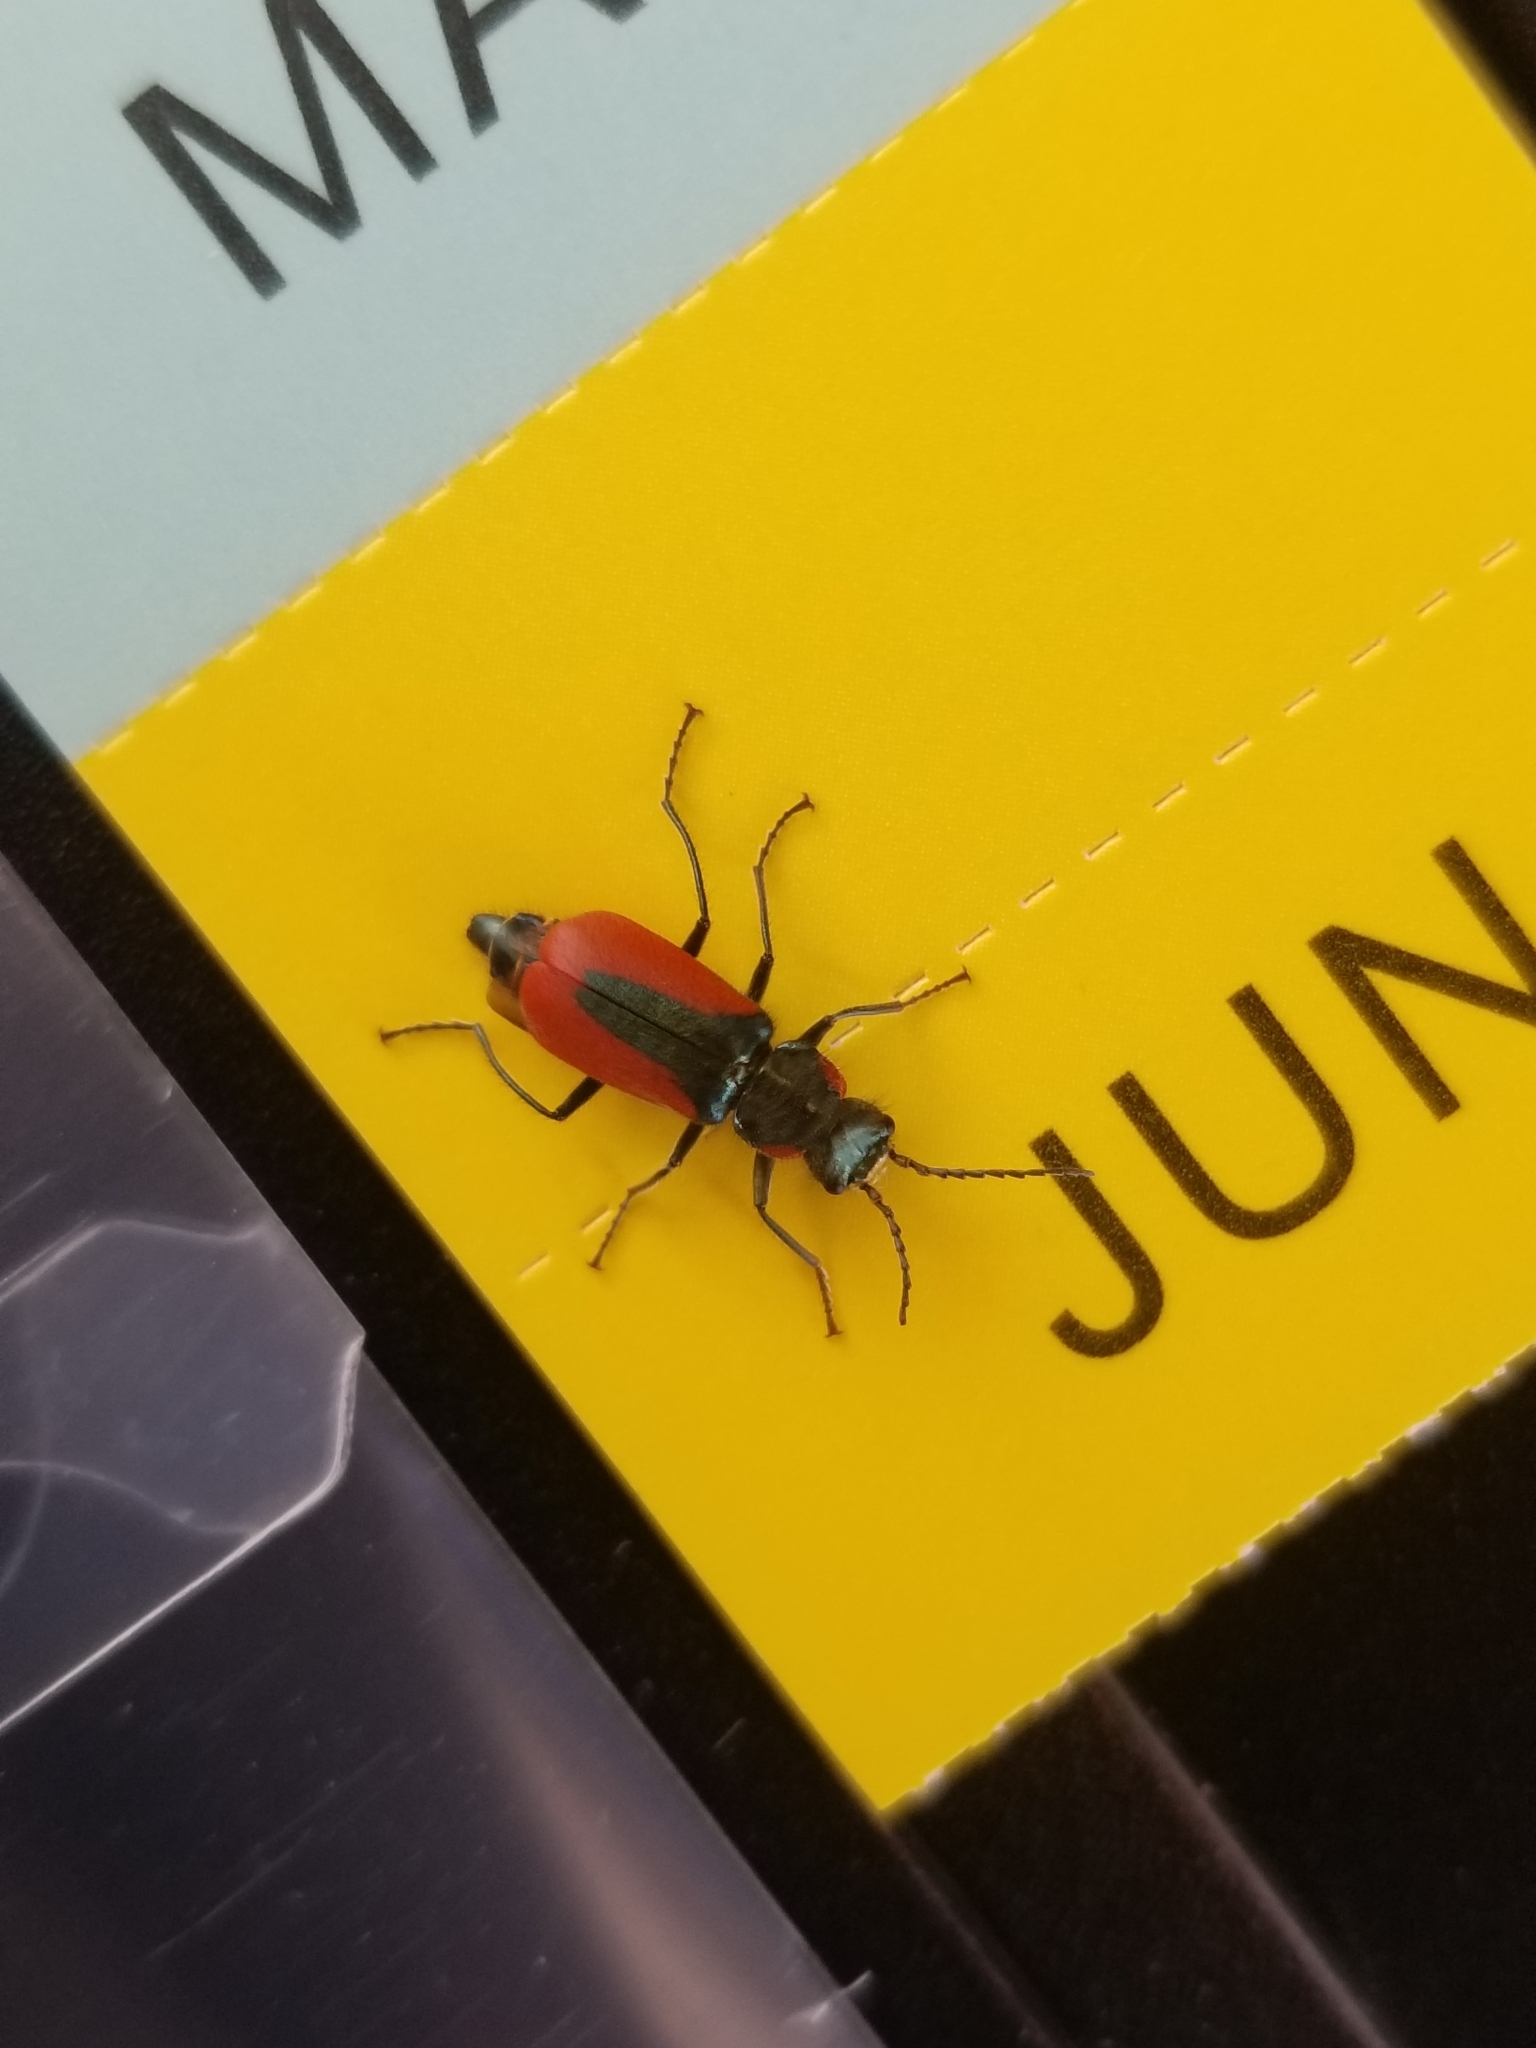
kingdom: Animalia
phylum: Arthropoda
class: Insecta
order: Coleoptera
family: Melyridae
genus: Malachius
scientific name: Malachius aeneus
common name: Scarlet malachite beetle
